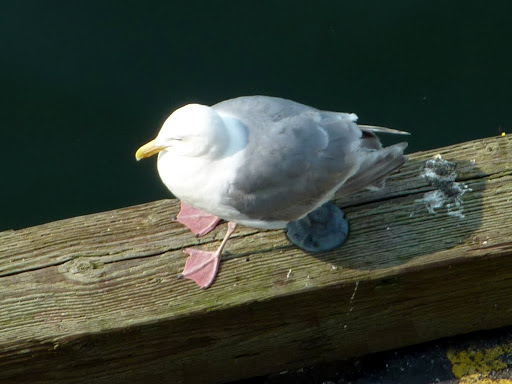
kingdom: Animalia
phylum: Chordata
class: Aves
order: Charadriiformes
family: Laridae
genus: Larus
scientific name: Larus glaucescens
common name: Glaucous-winged gull
